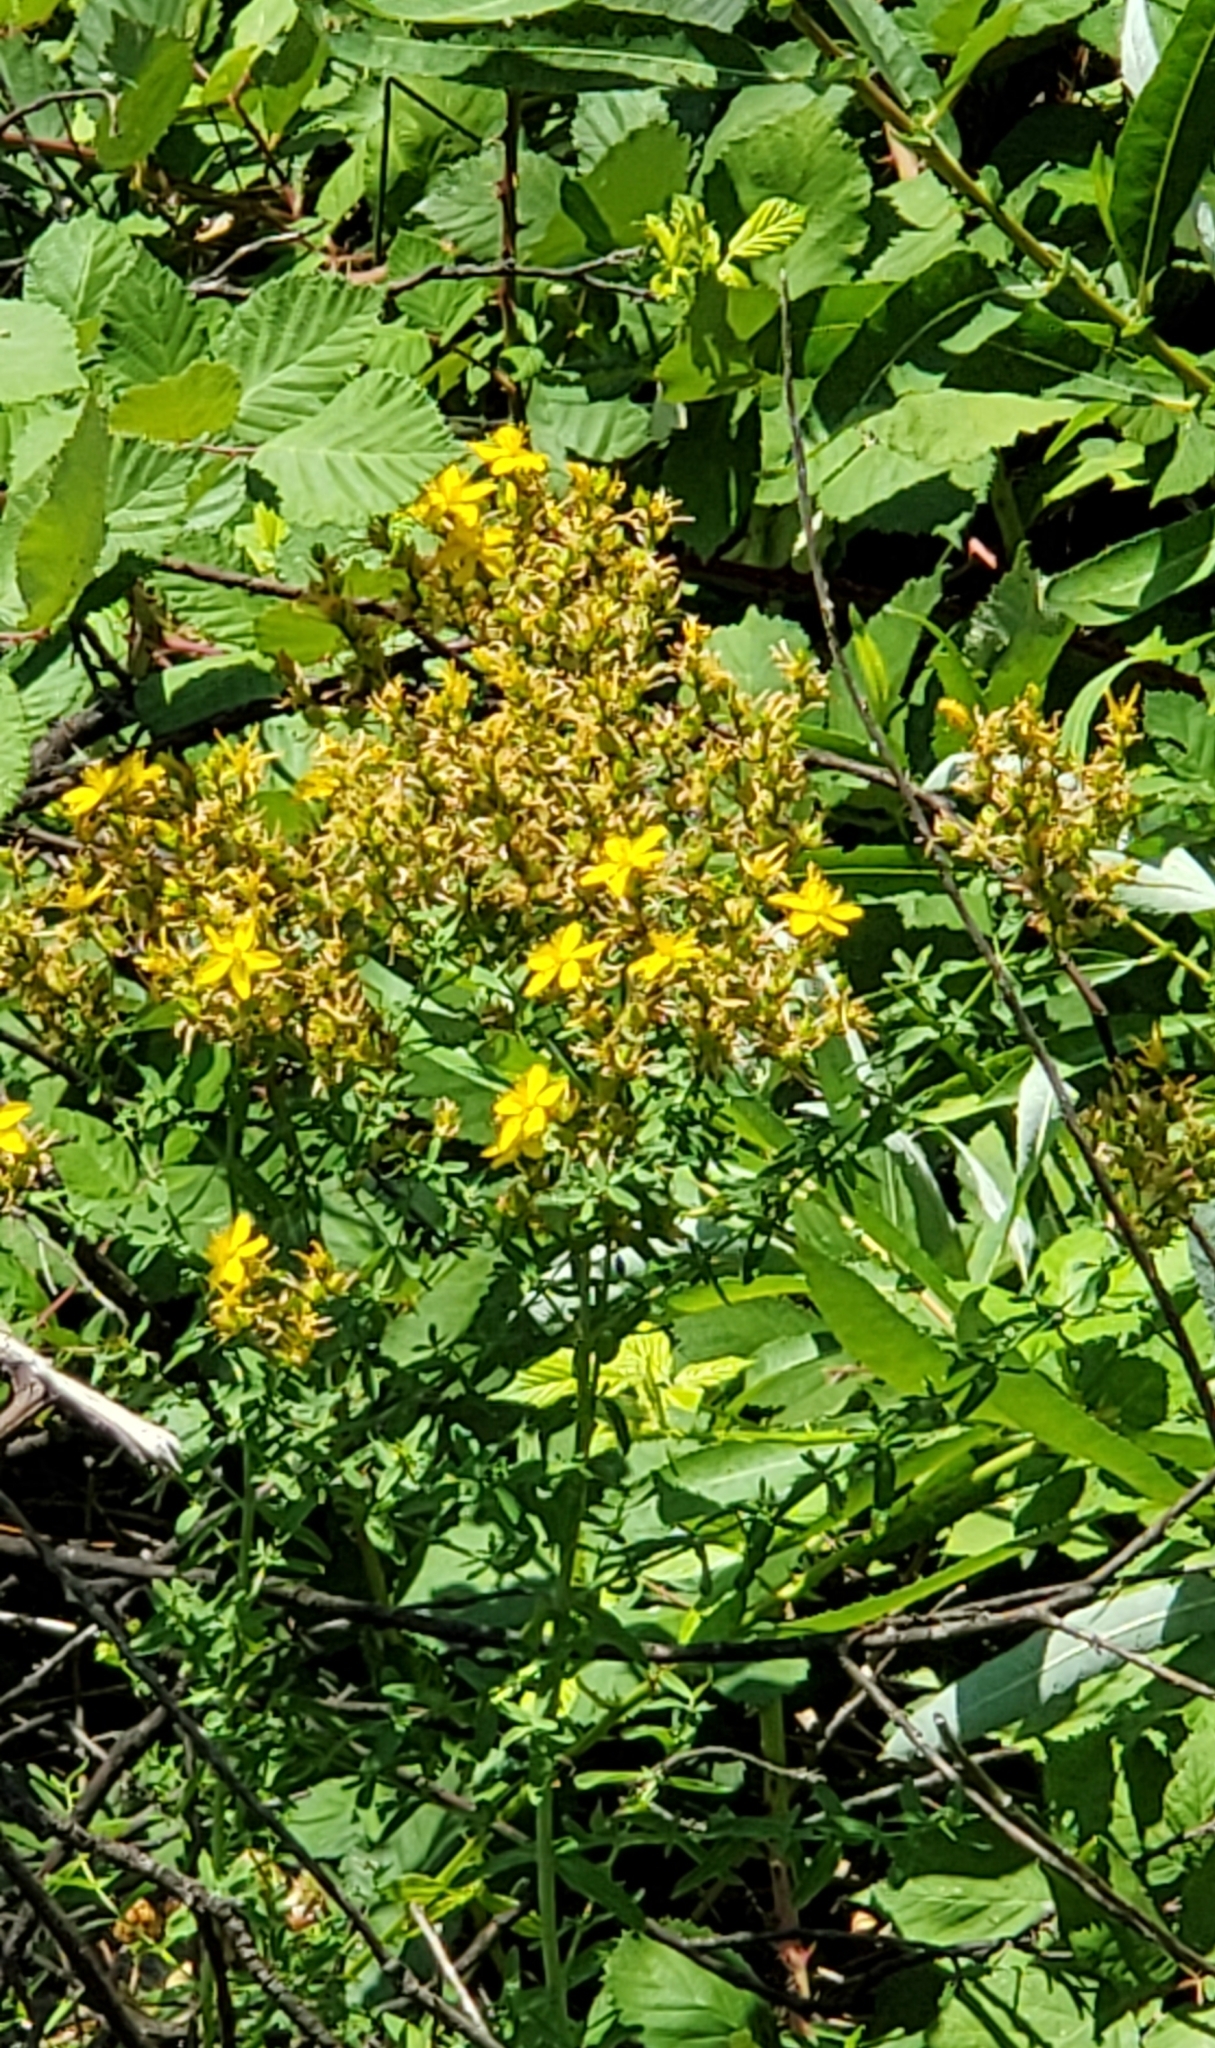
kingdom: Plantae
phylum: Tracheophyta
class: Magnoliopsida
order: Malpighiales
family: Hypericaceae
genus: Hypericum
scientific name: Hypericum perforatum
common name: Common st. johnswort
